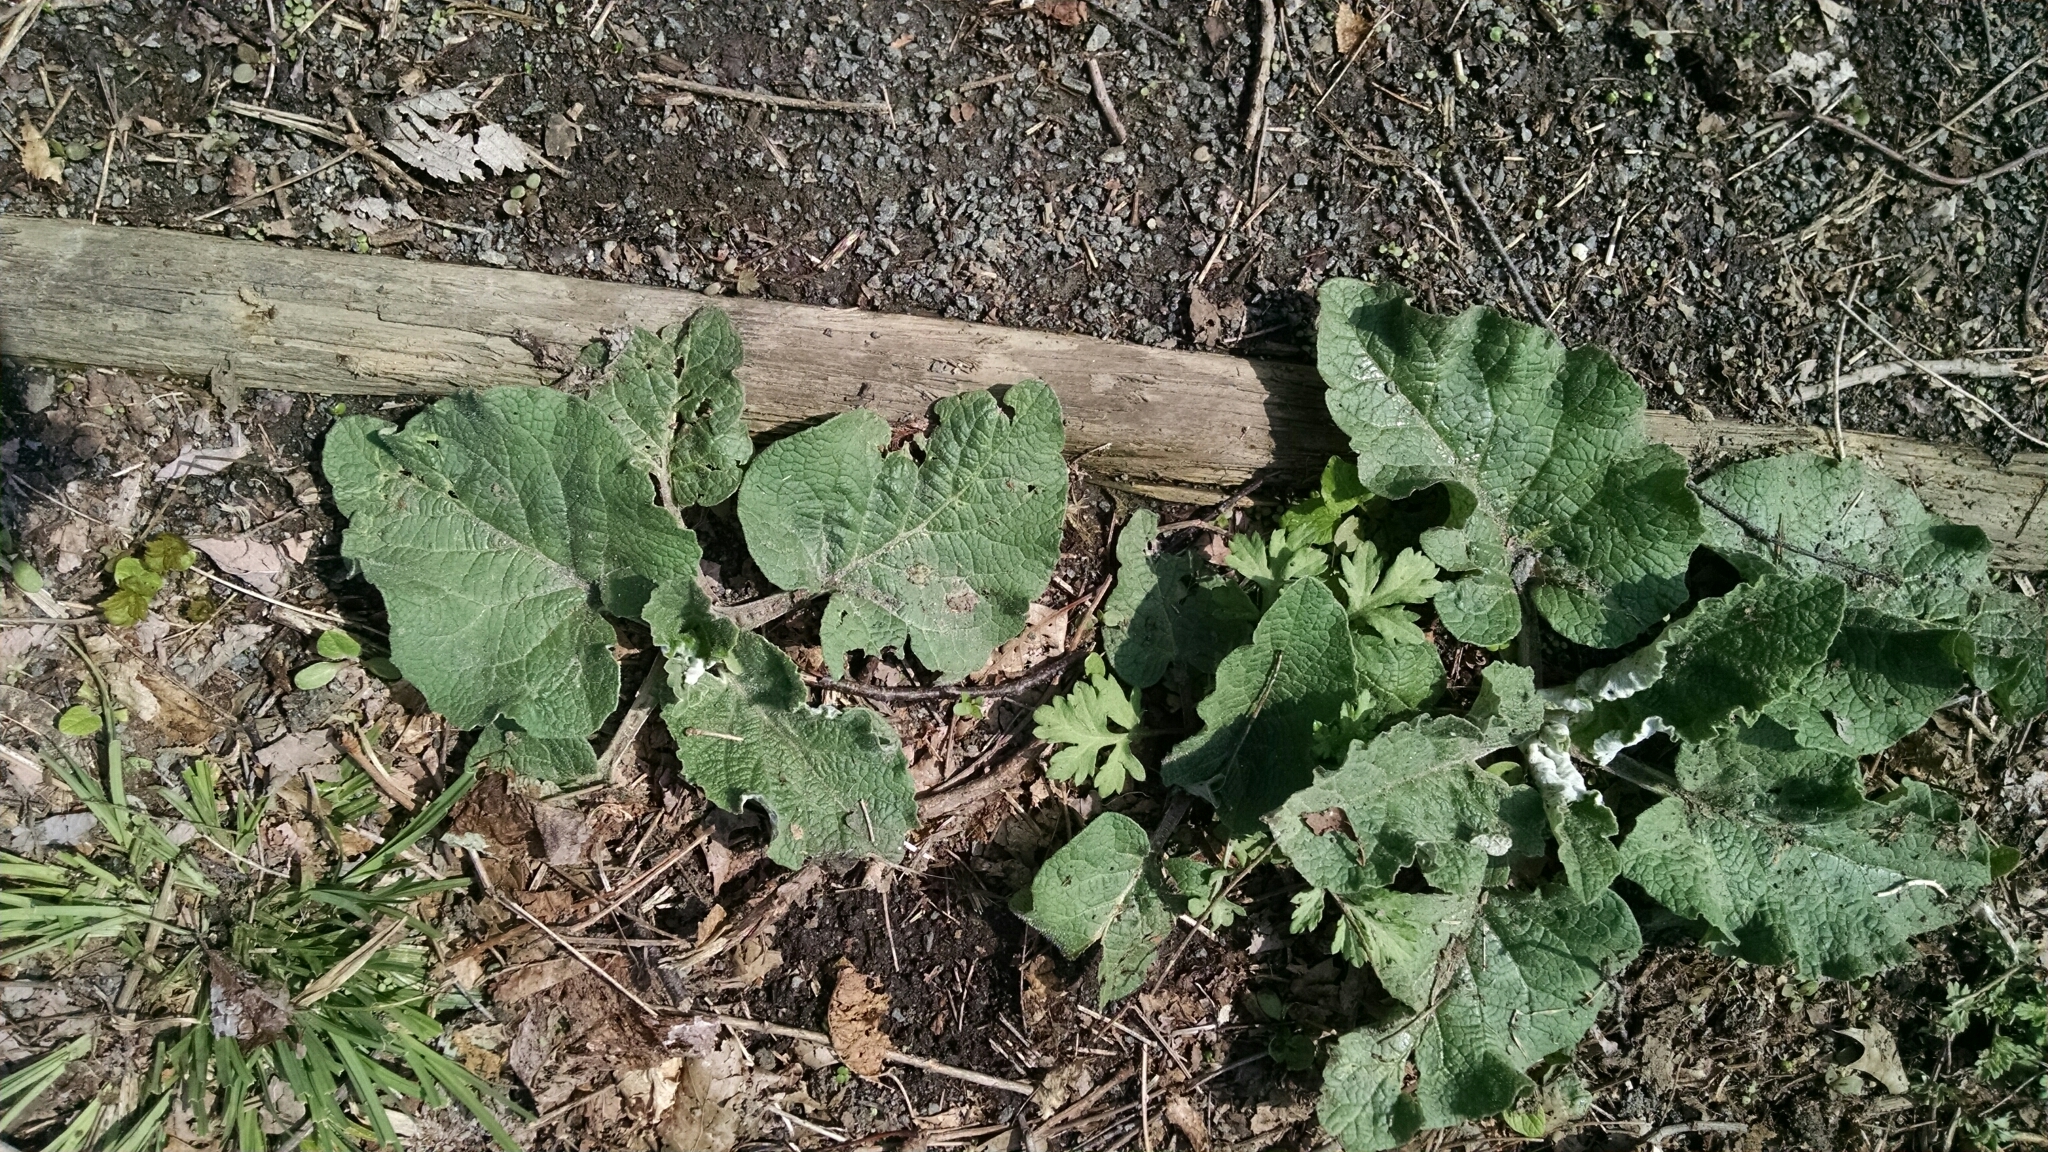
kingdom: Plantae
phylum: Tracheophyta
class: Magnoliopsida
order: Asterales
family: Asteraceae
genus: Arctium
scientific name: Arctium
